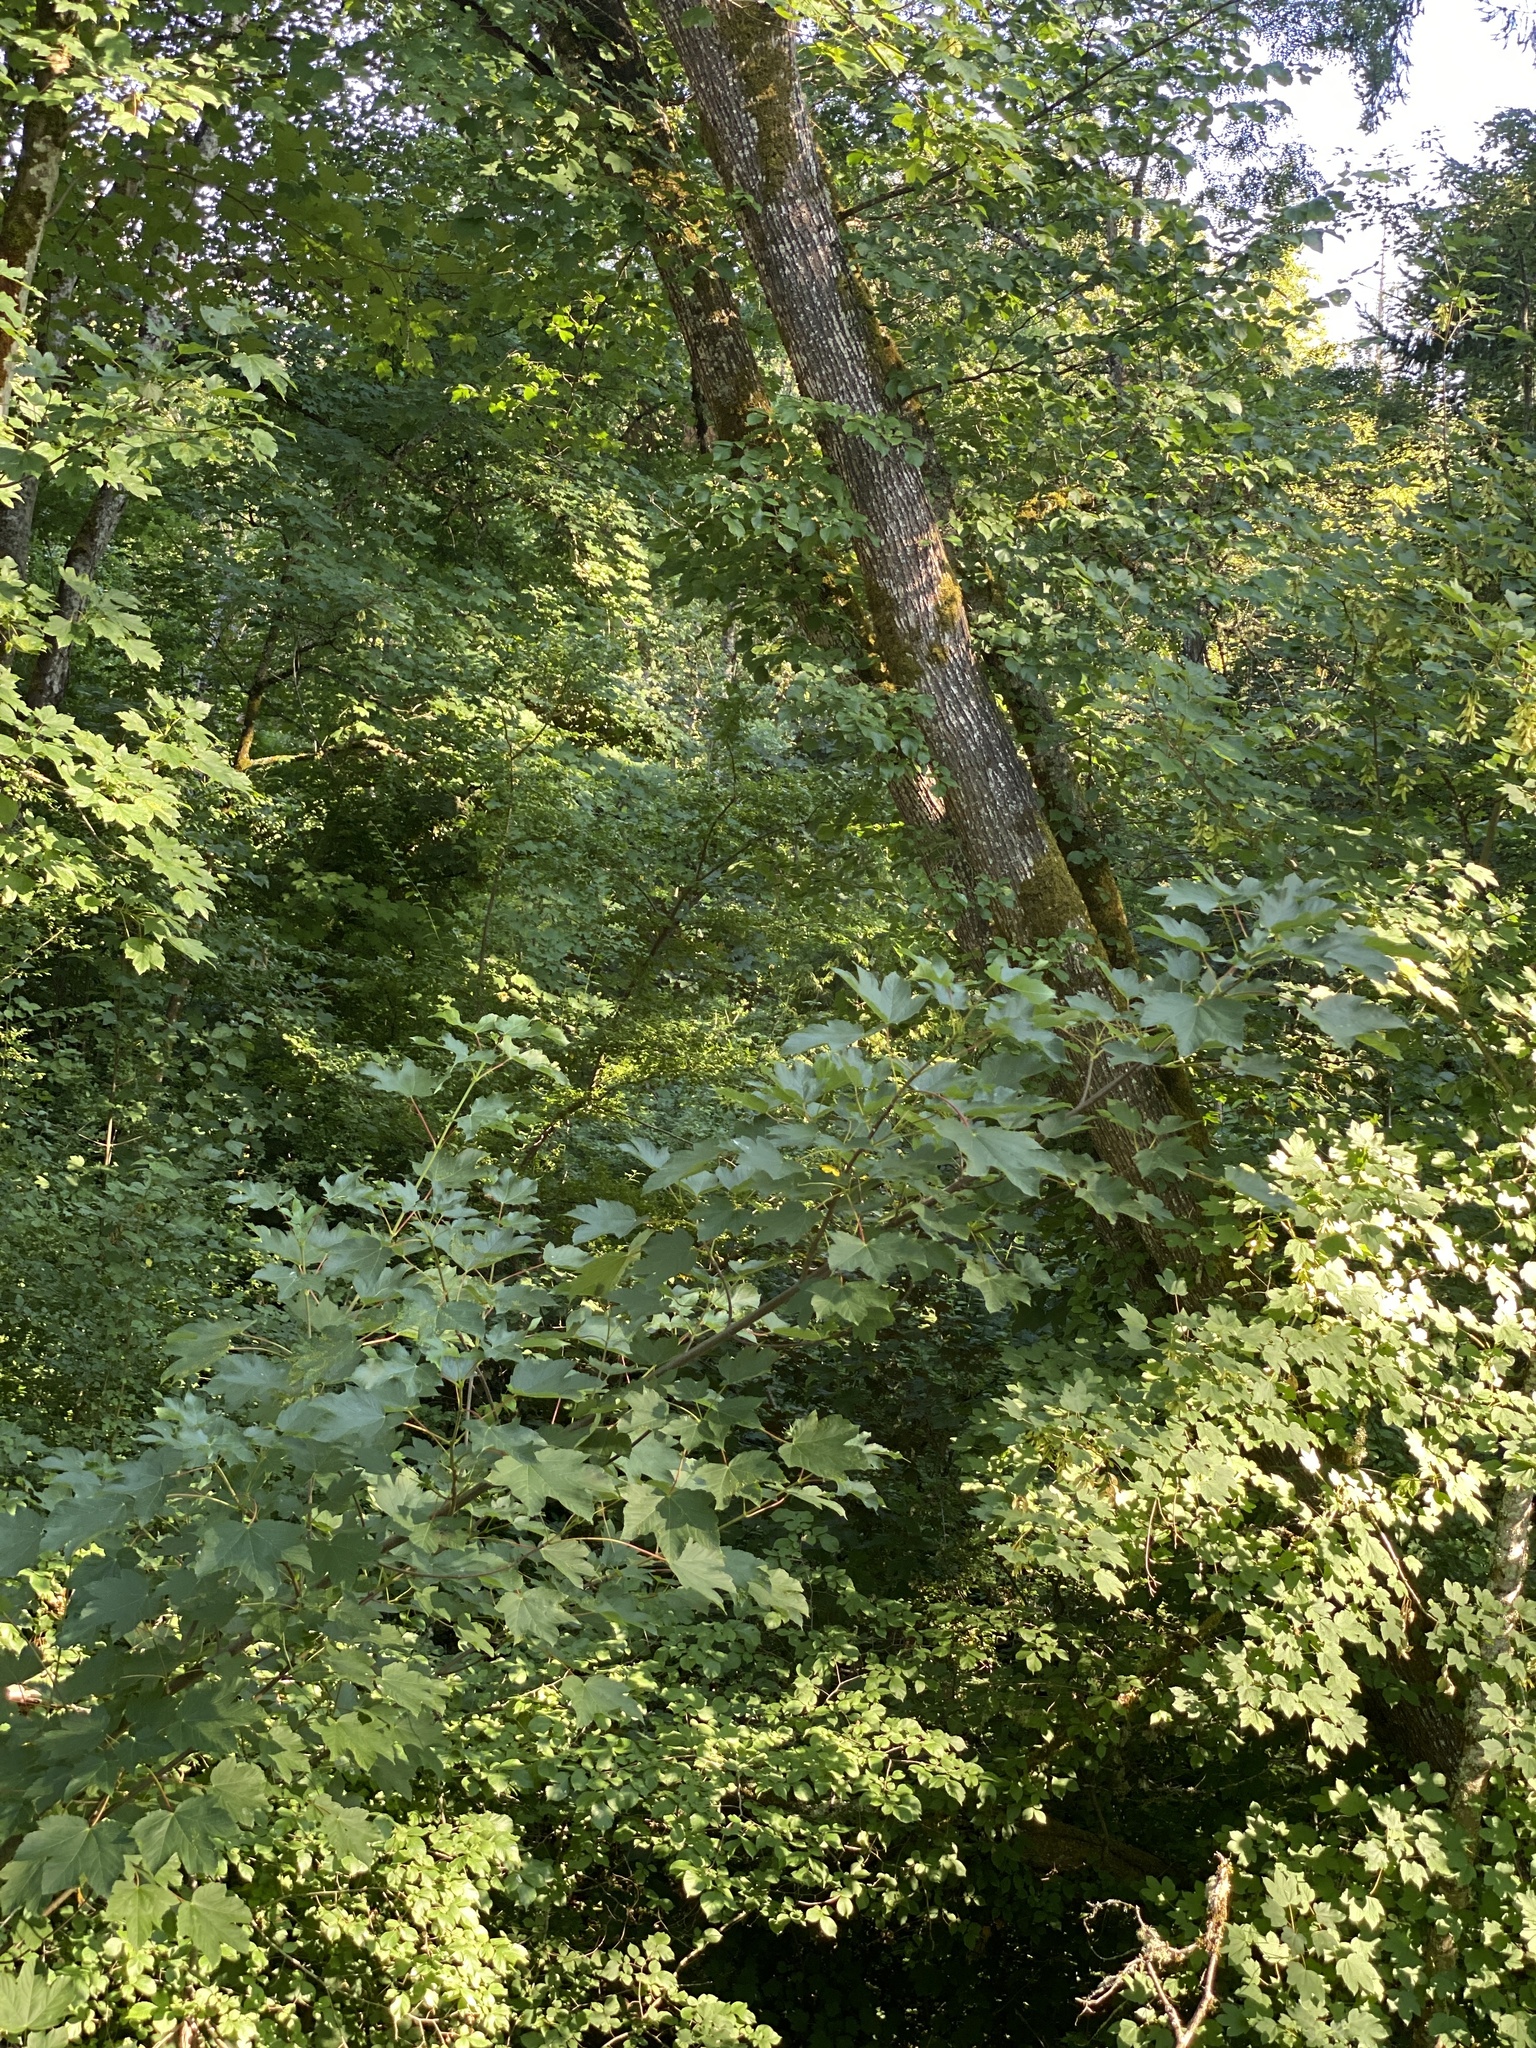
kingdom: Plantae
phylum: Tracheophyta
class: Magnoliopsida
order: Sapindales
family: Sapindaceae
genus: Acer
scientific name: Acer pseudoplatanus
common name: Sycamore
